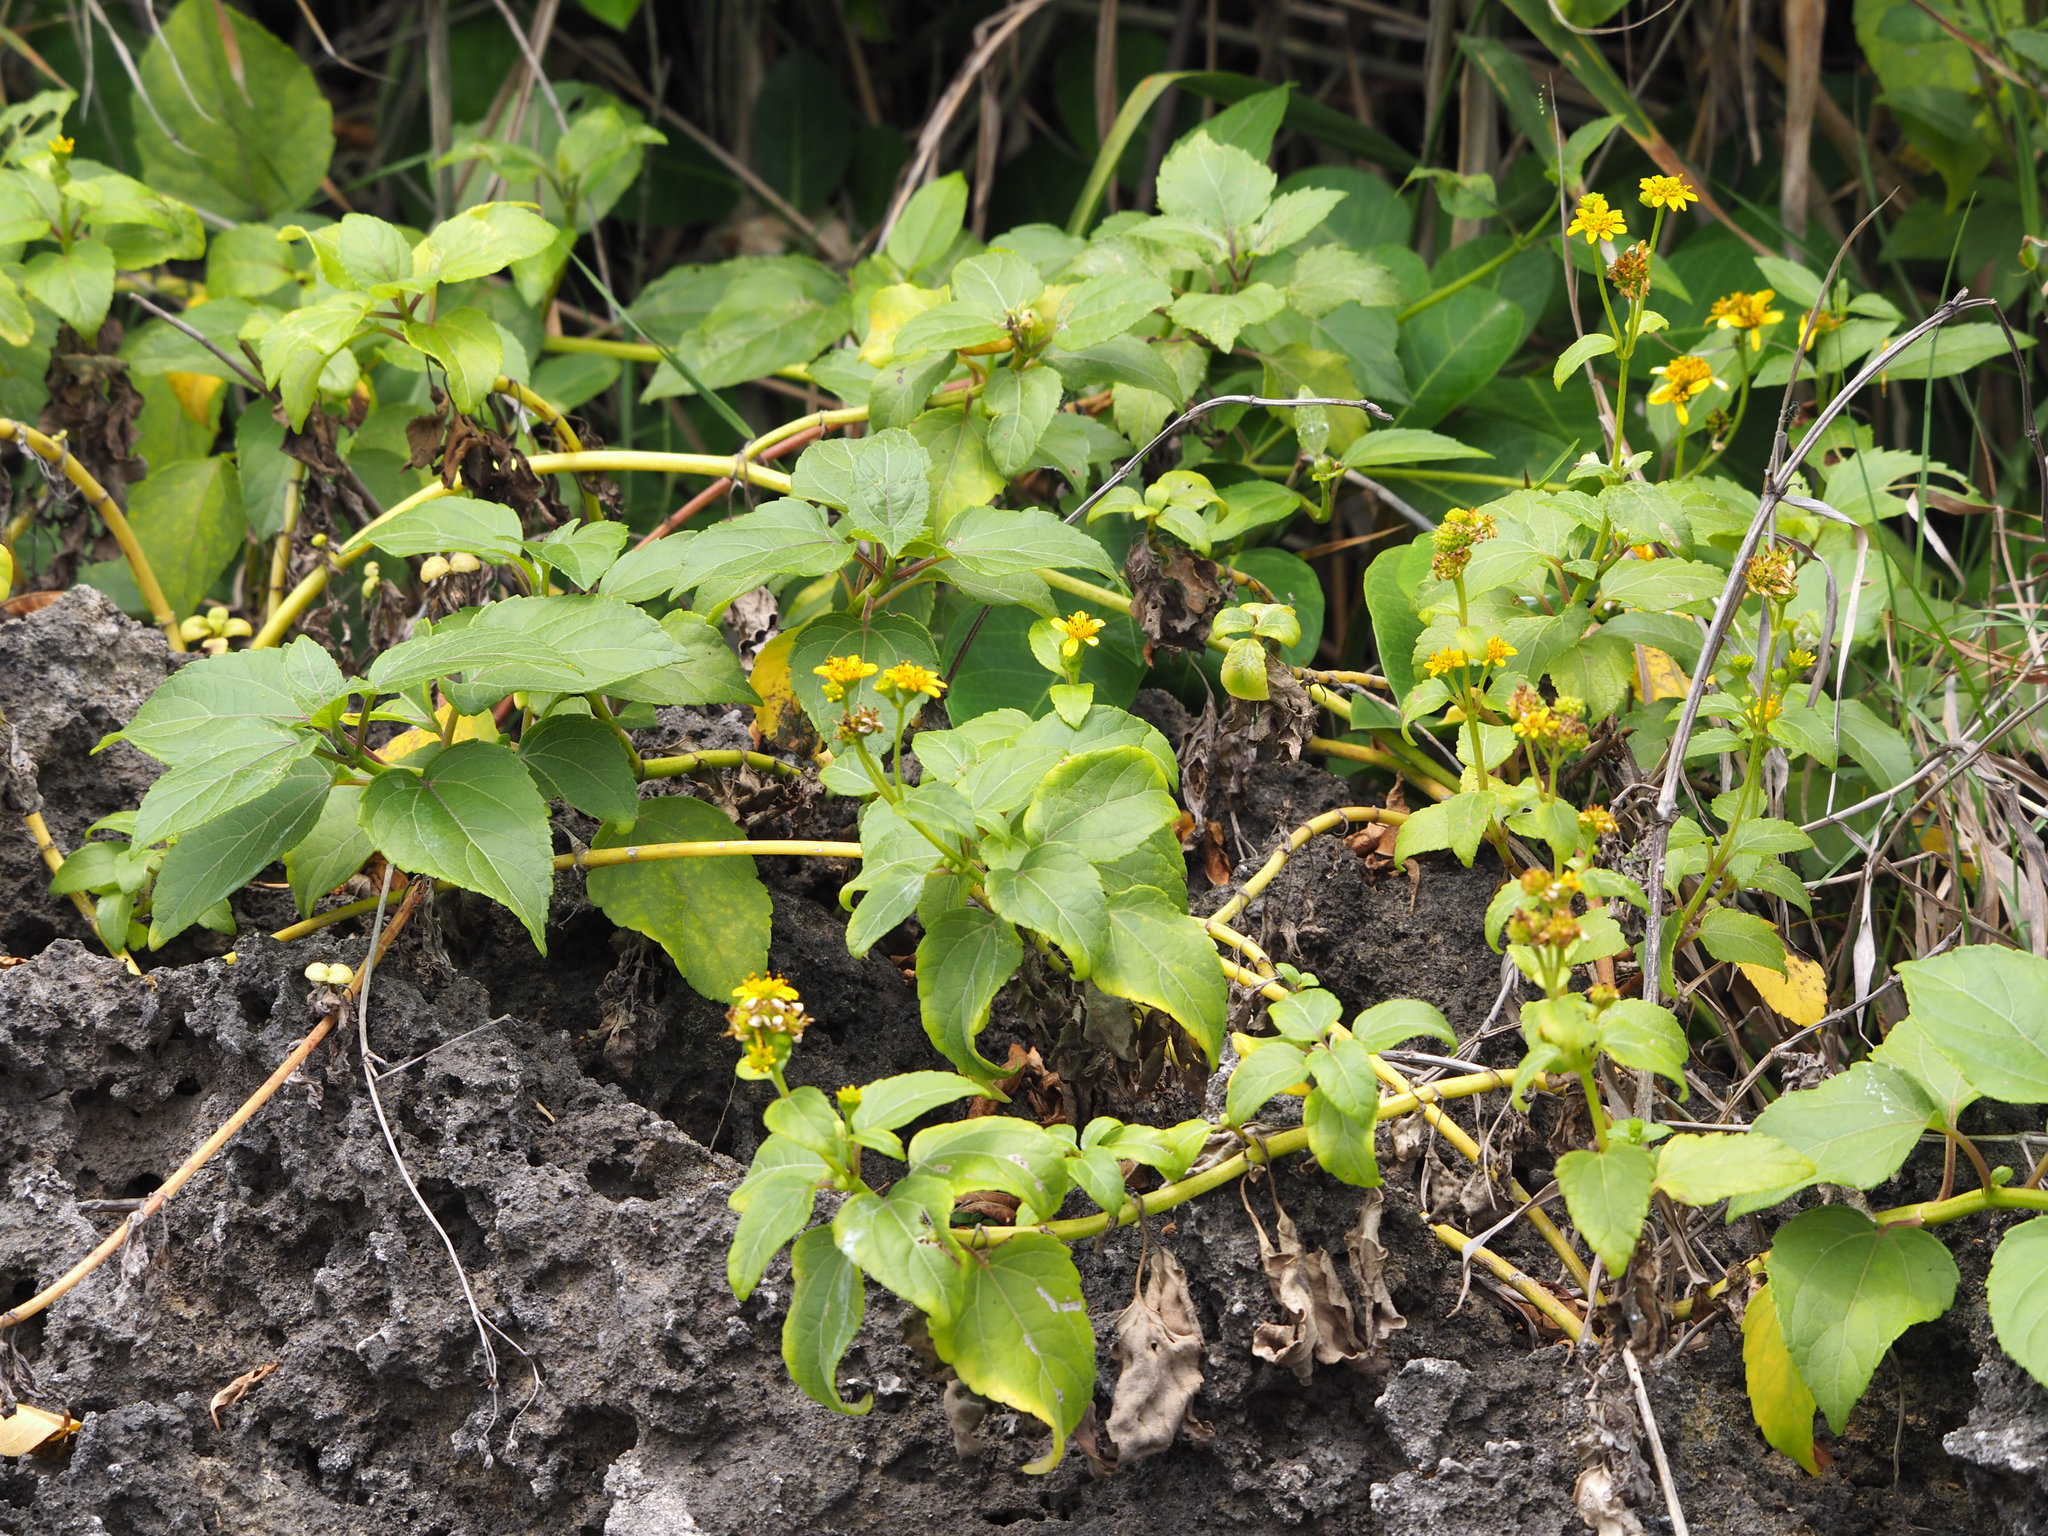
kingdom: Plantae
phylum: Tracheophyta
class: Magnoliopsida
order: Asterales
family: Asteraceae
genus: Wollastonia
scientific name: Wollastonia biflora
